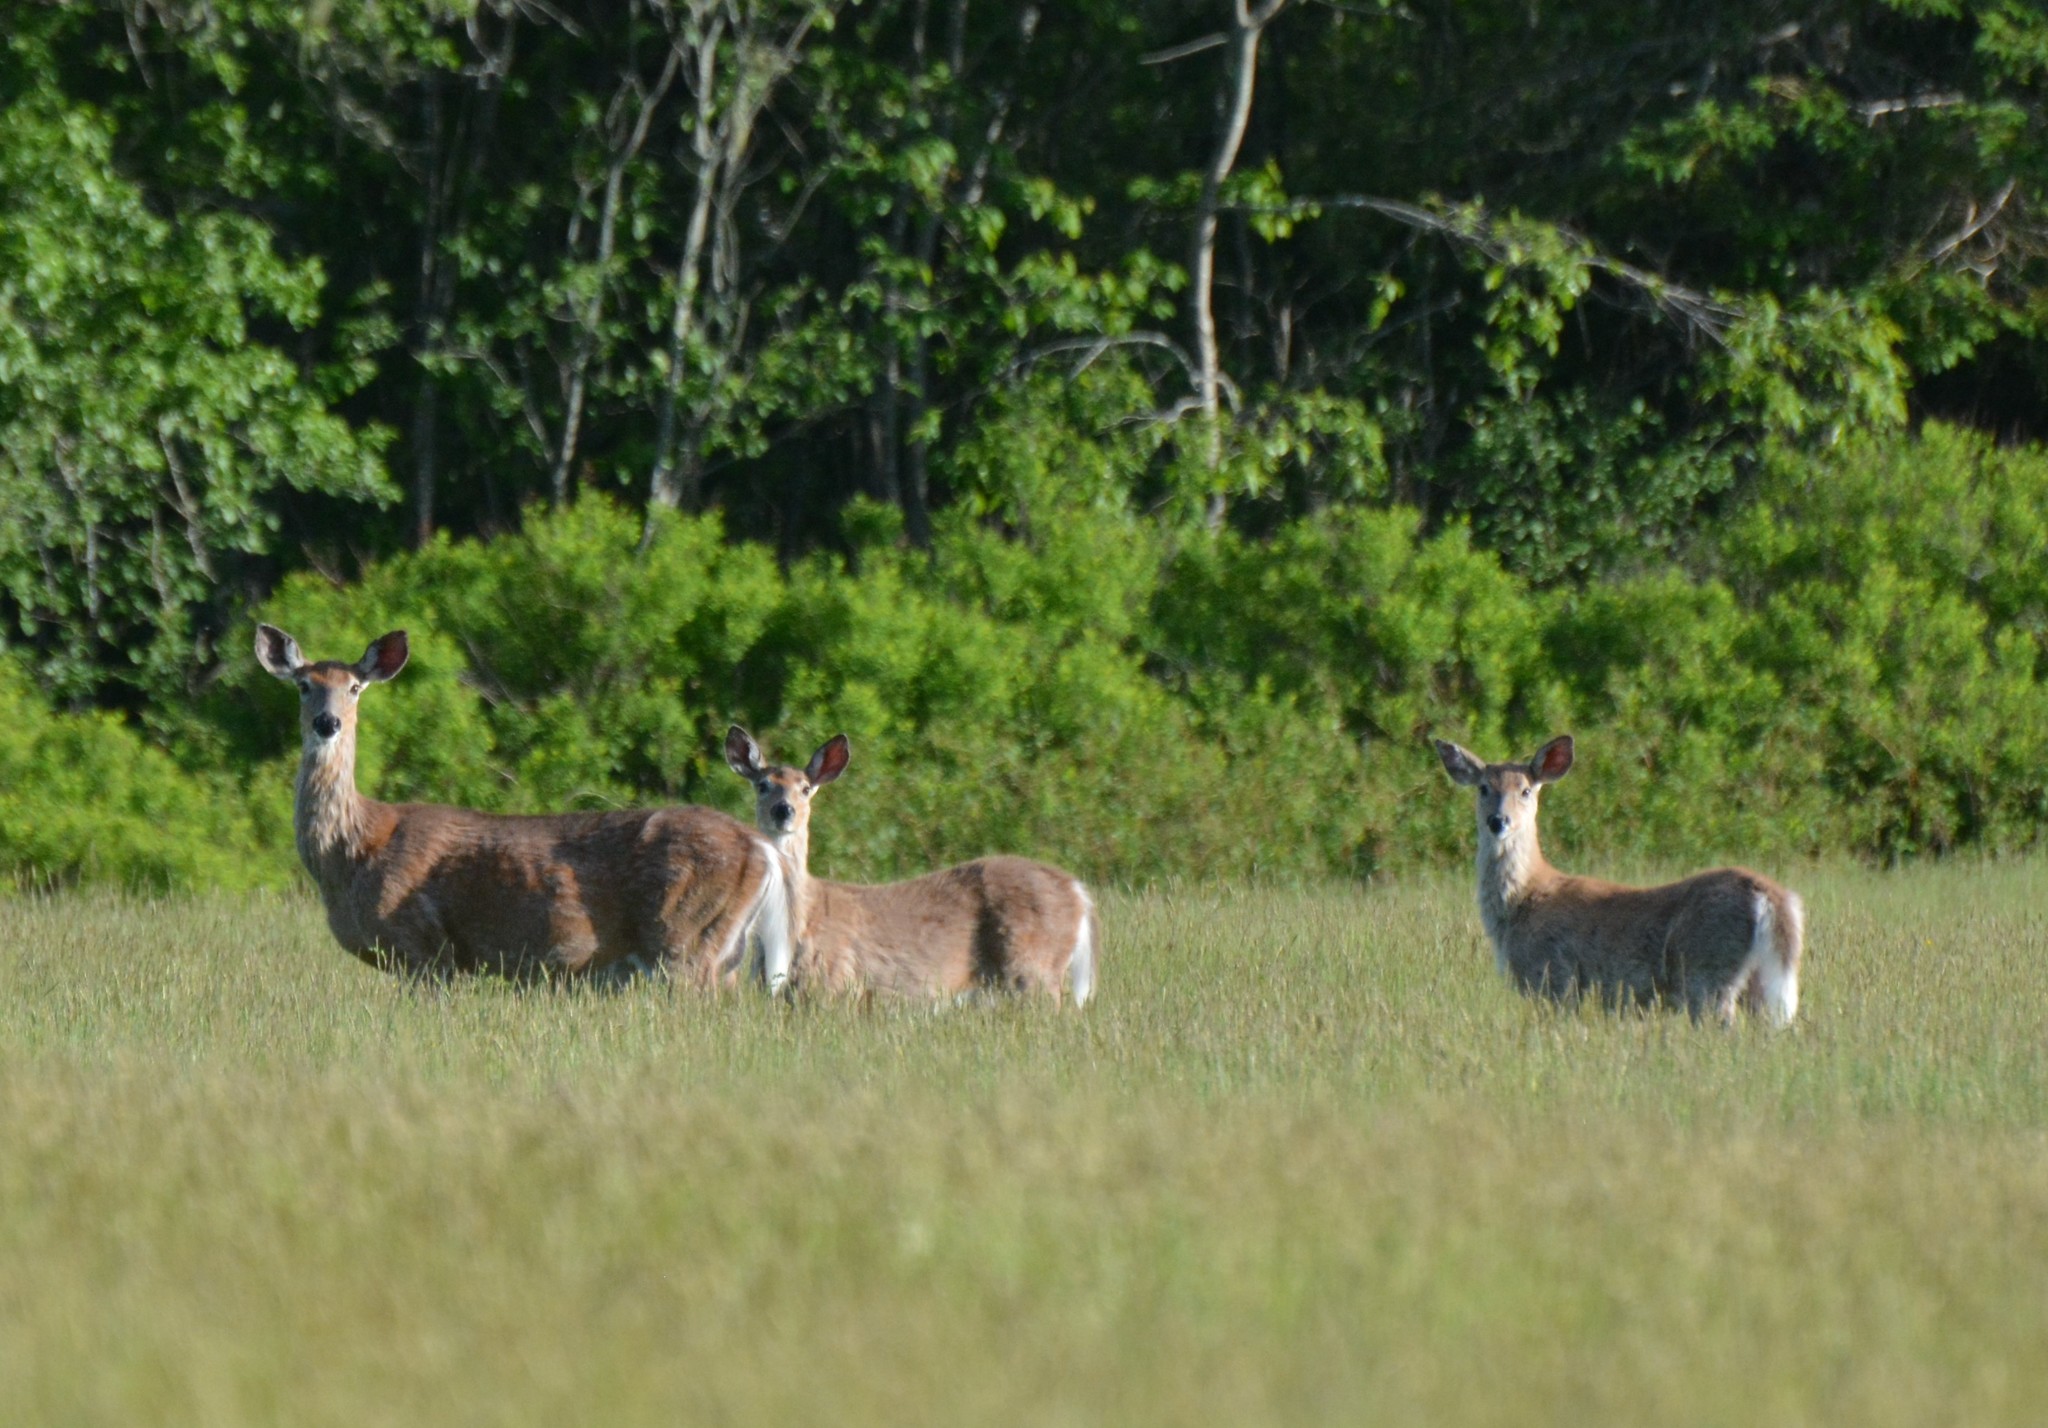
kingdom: Animalia
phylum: Chordata
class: Mammalia
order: Artiodactyla
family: Cervidae
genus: Odocoileus
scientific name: Odocoileus virginianus
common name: White-tailed deer
